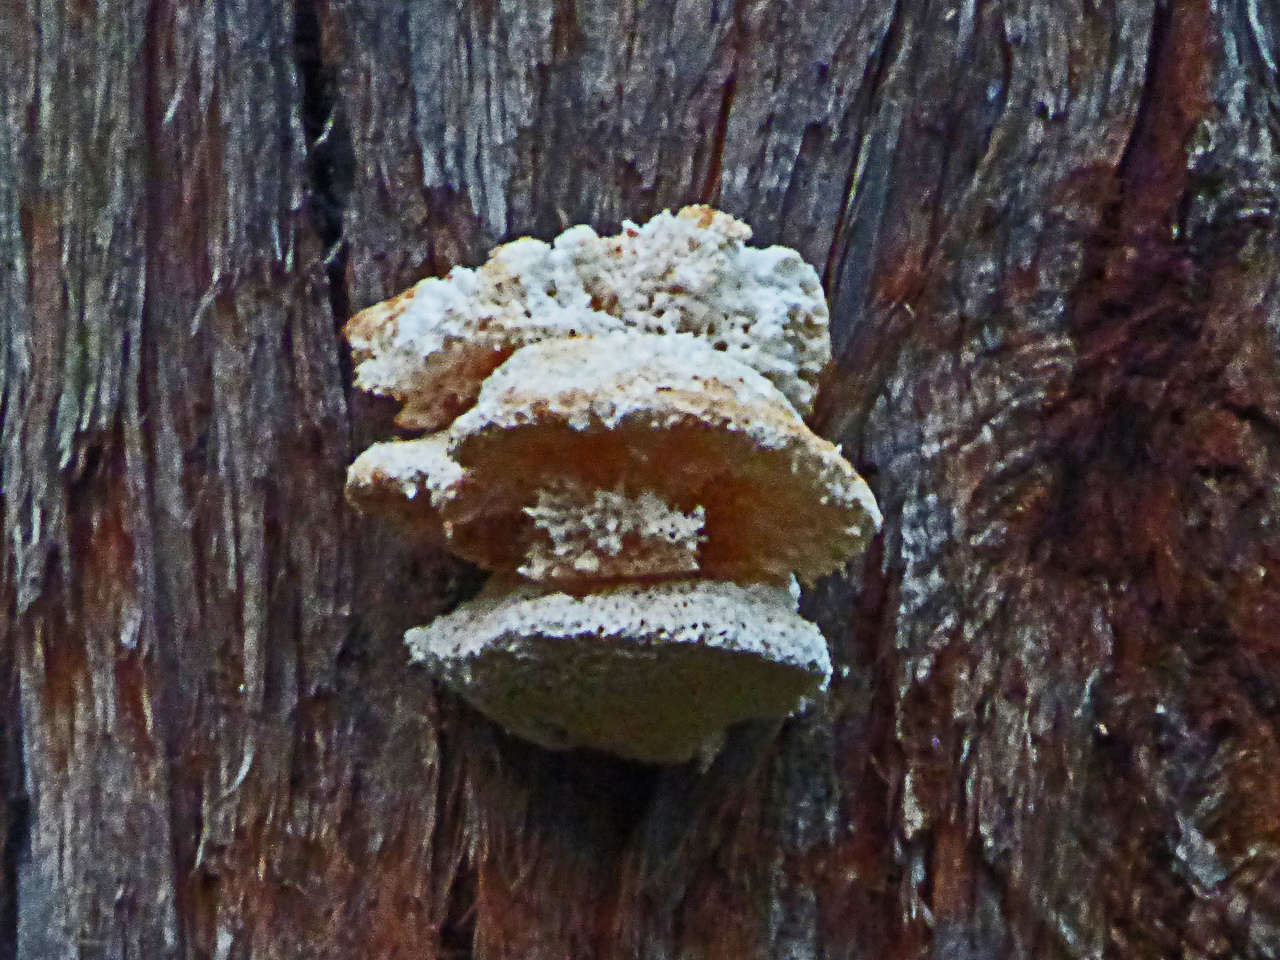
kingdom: Fungi
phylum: Basidiomycota
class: Agaricomycetes
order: Polyporales
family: Laetiporaceae
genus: Laetiporus
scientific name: Laetiporus portentosus
